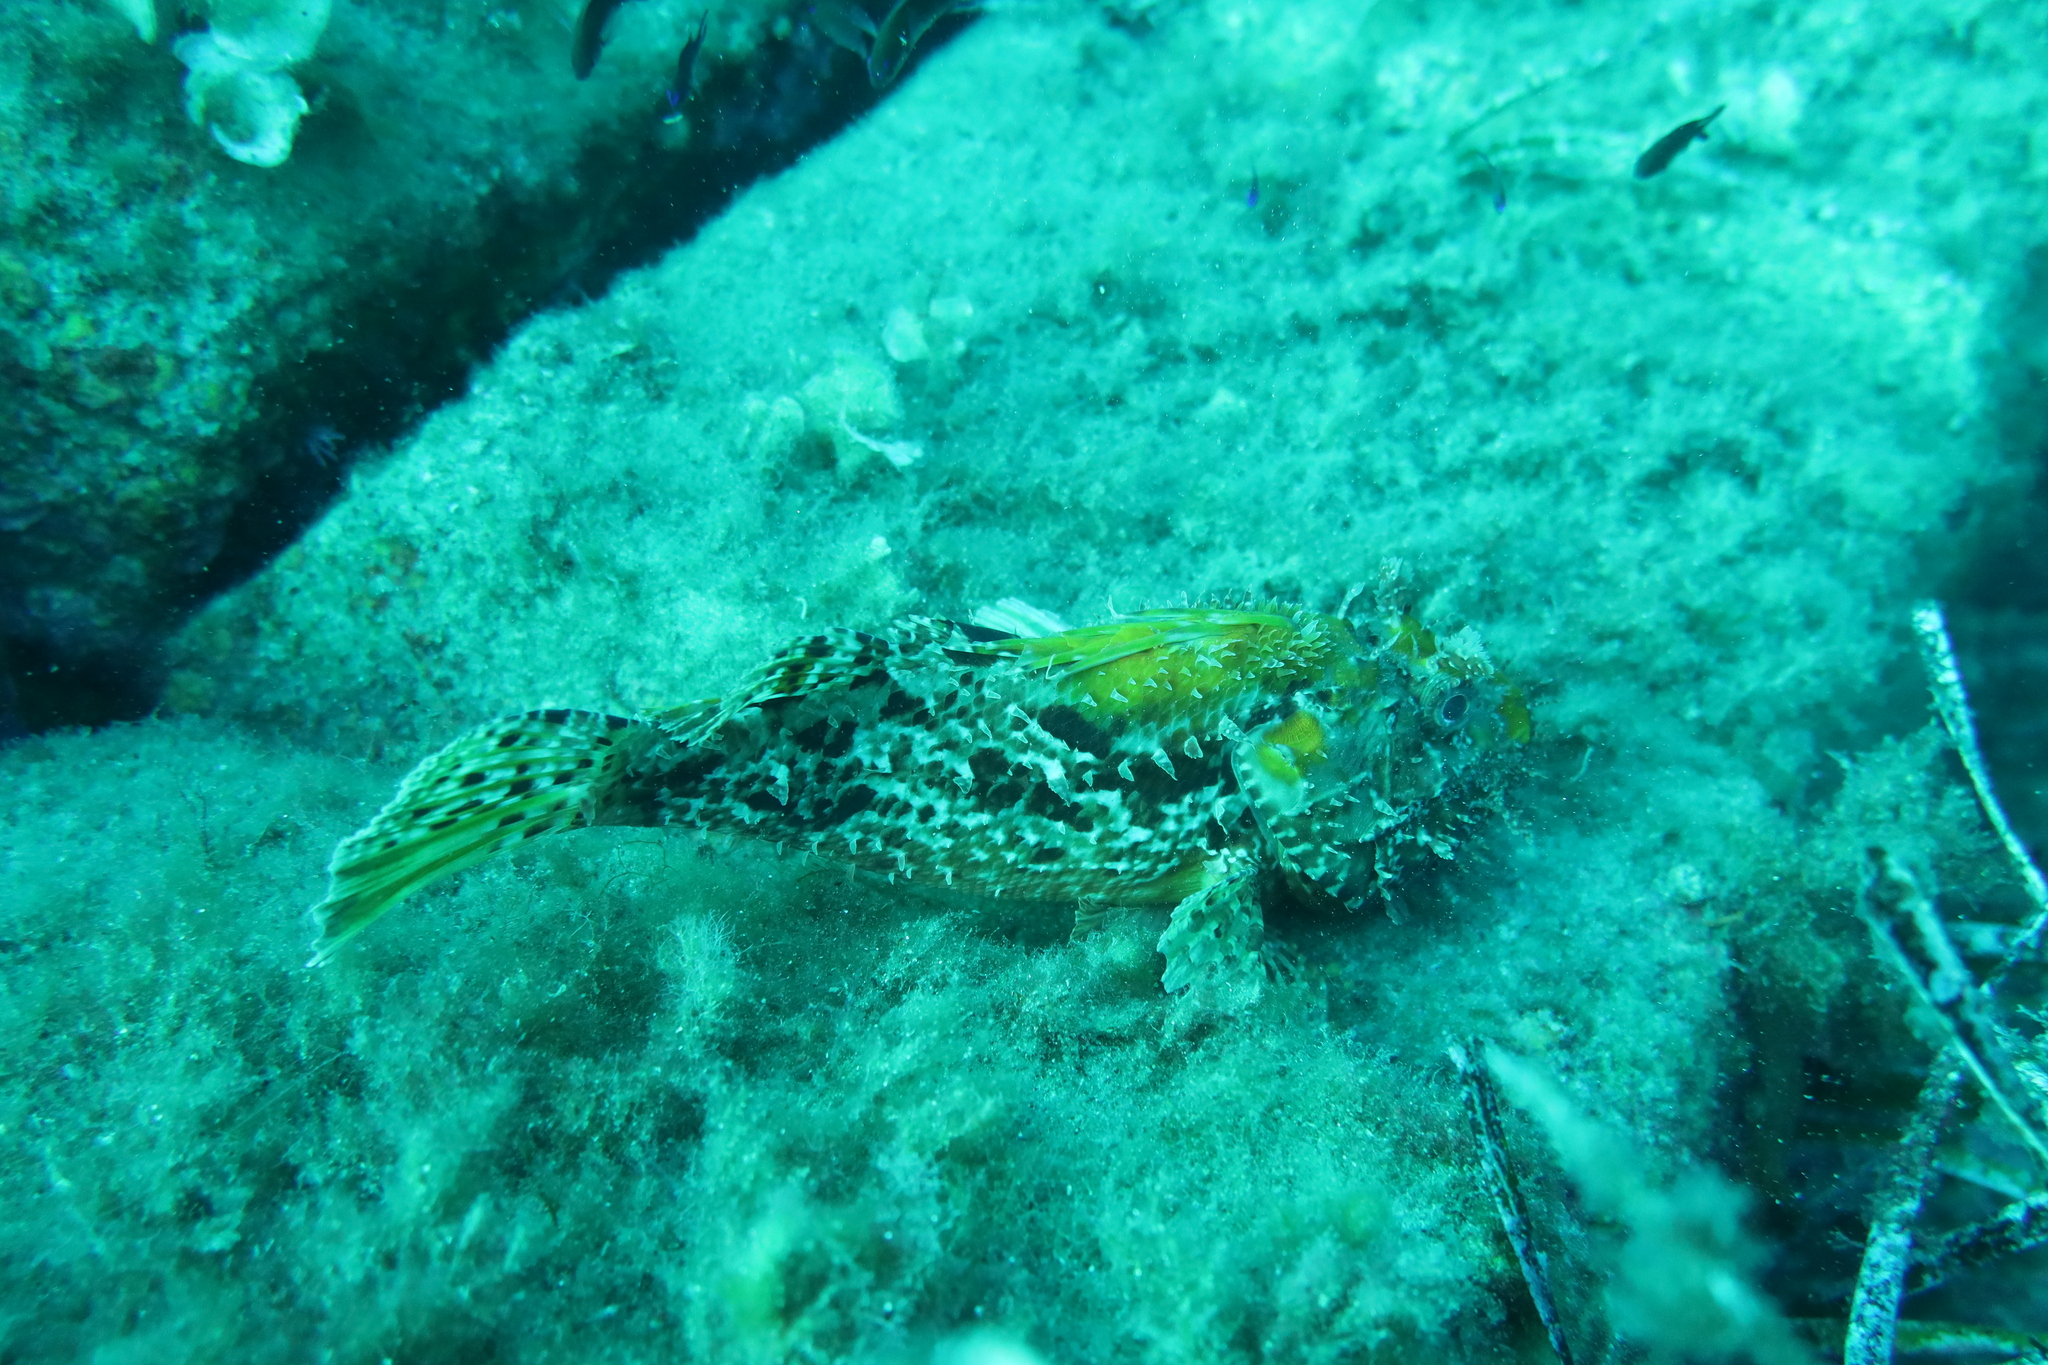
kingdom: Animalia
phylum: Chordata
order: Scorpaeniformes
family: Scorpaenidae
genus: Scorpaena
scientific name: Scorpaena scrofa
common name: Red scorpionfish
